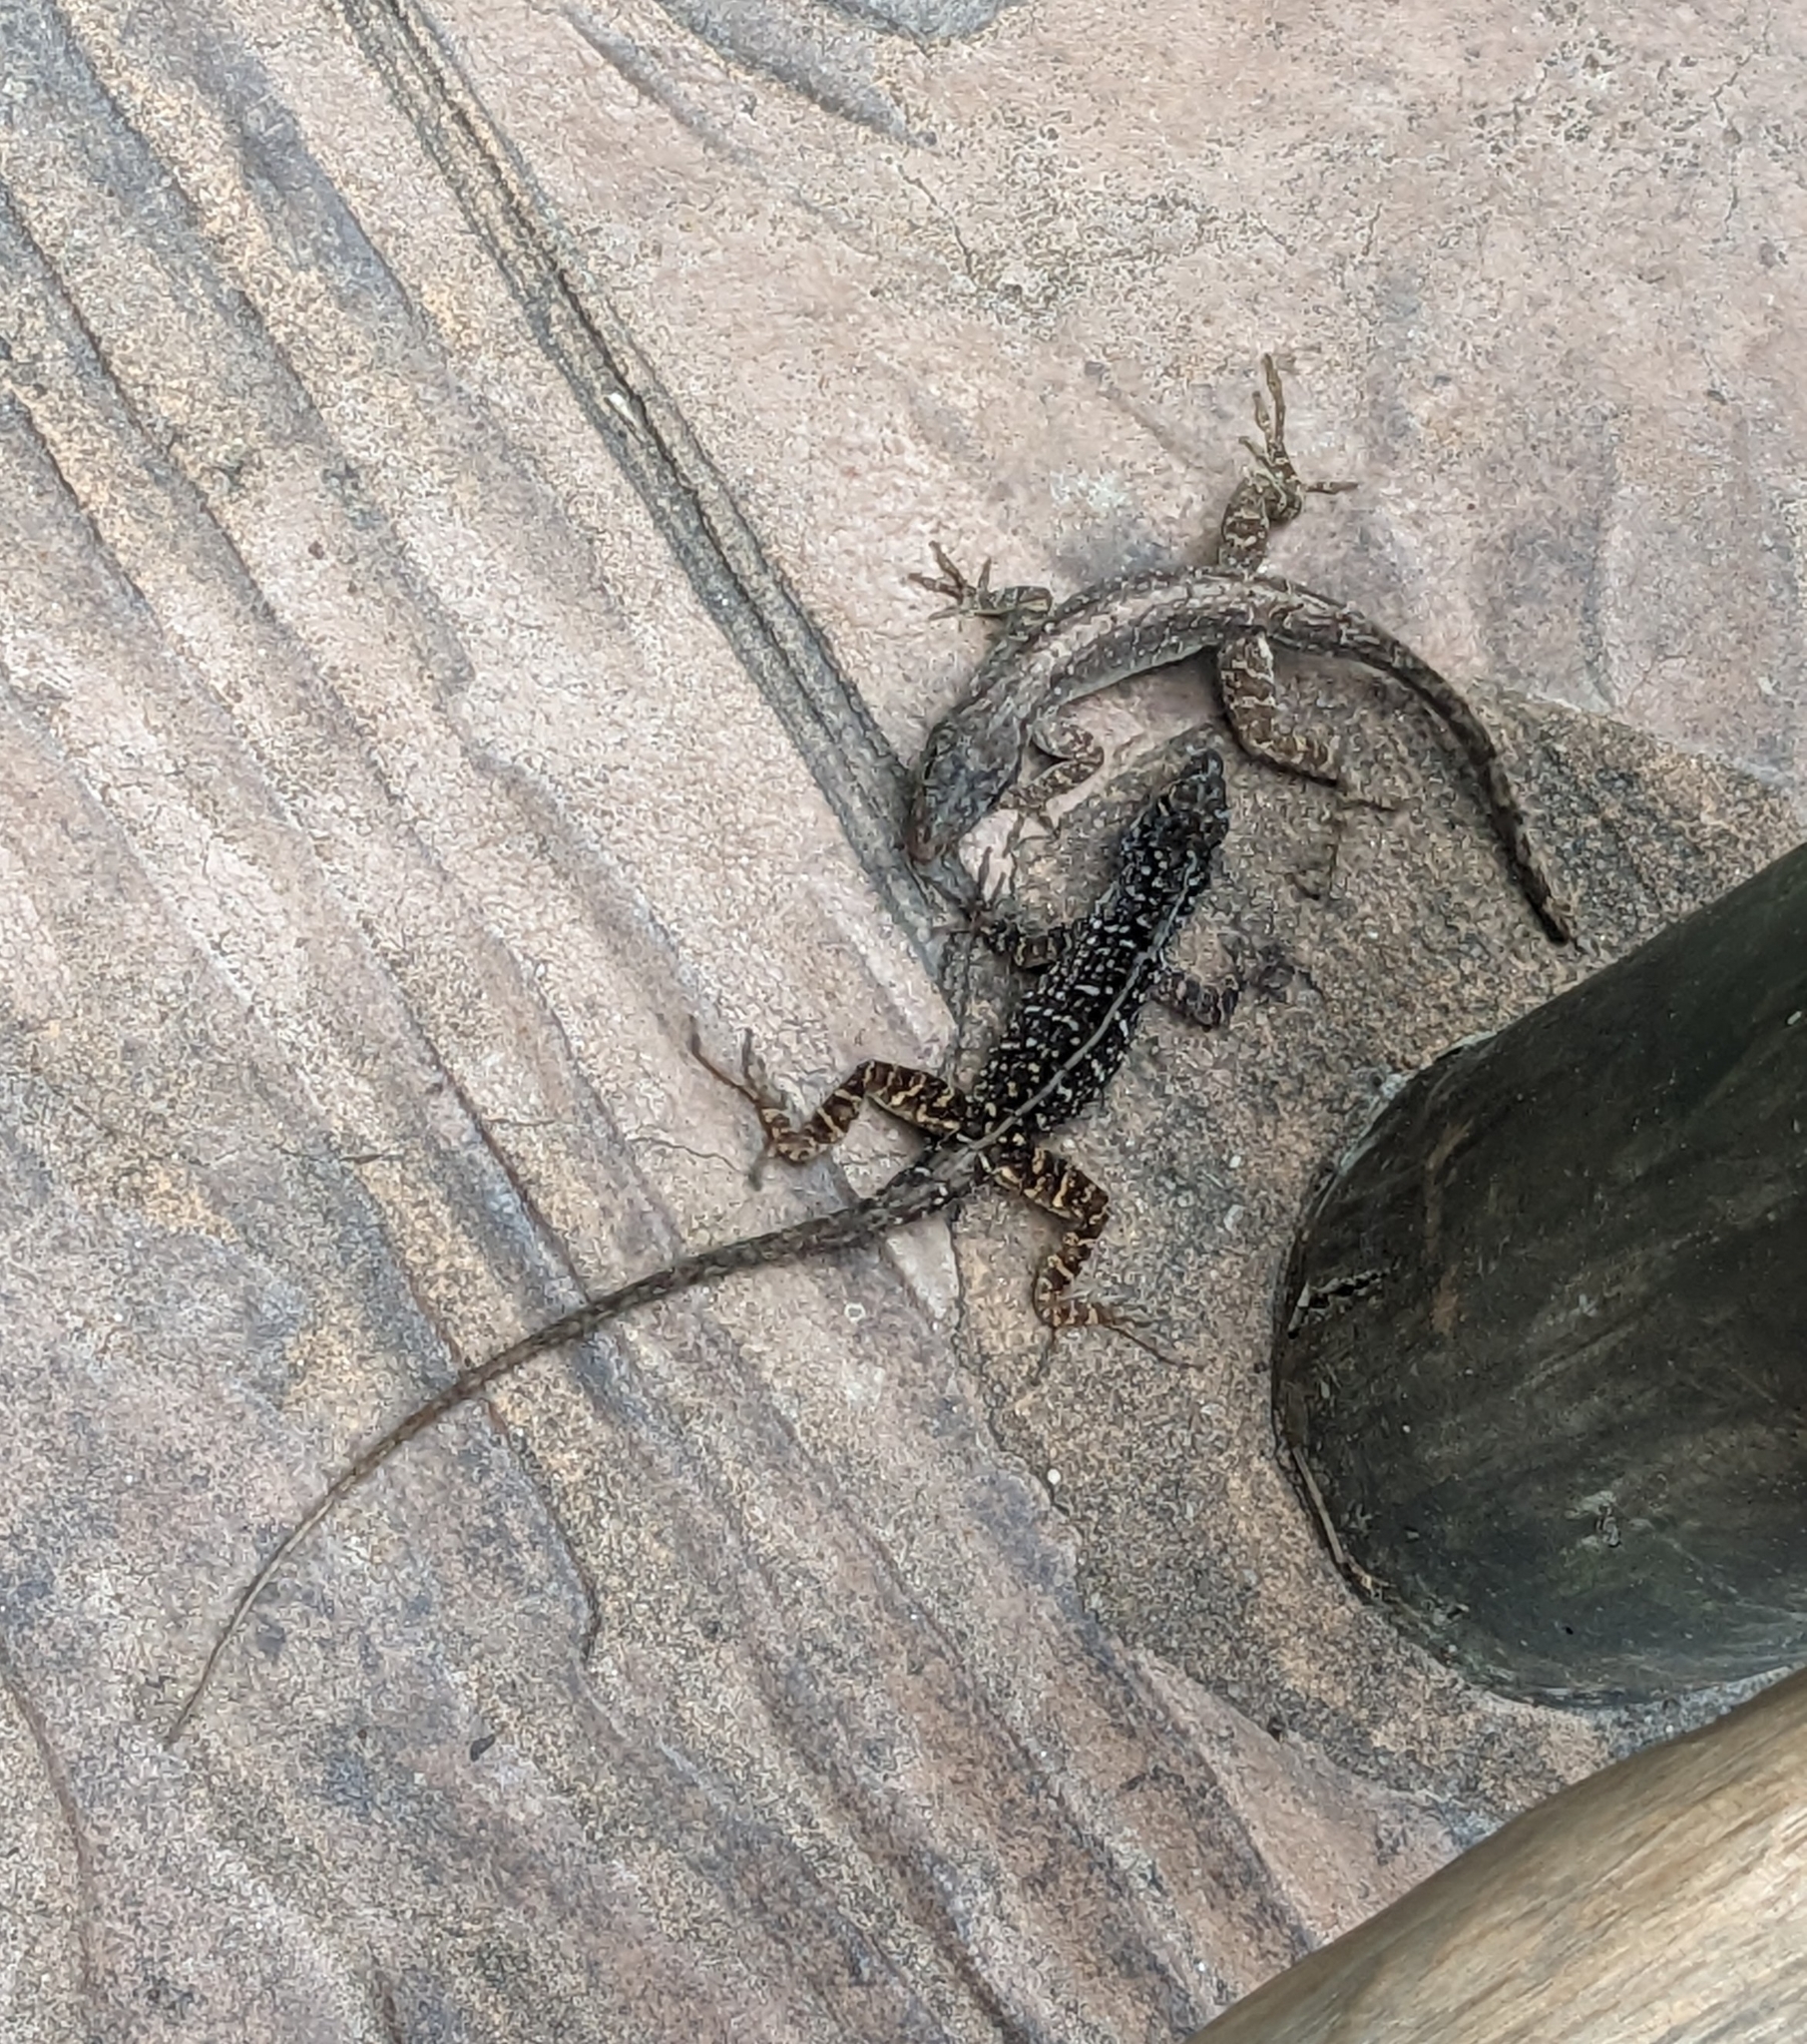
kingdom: Animalia
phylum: Chordata
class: Squamata
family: Dactyloidae
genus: Anolis
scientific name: Anolis sagrei
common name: Brown anole
